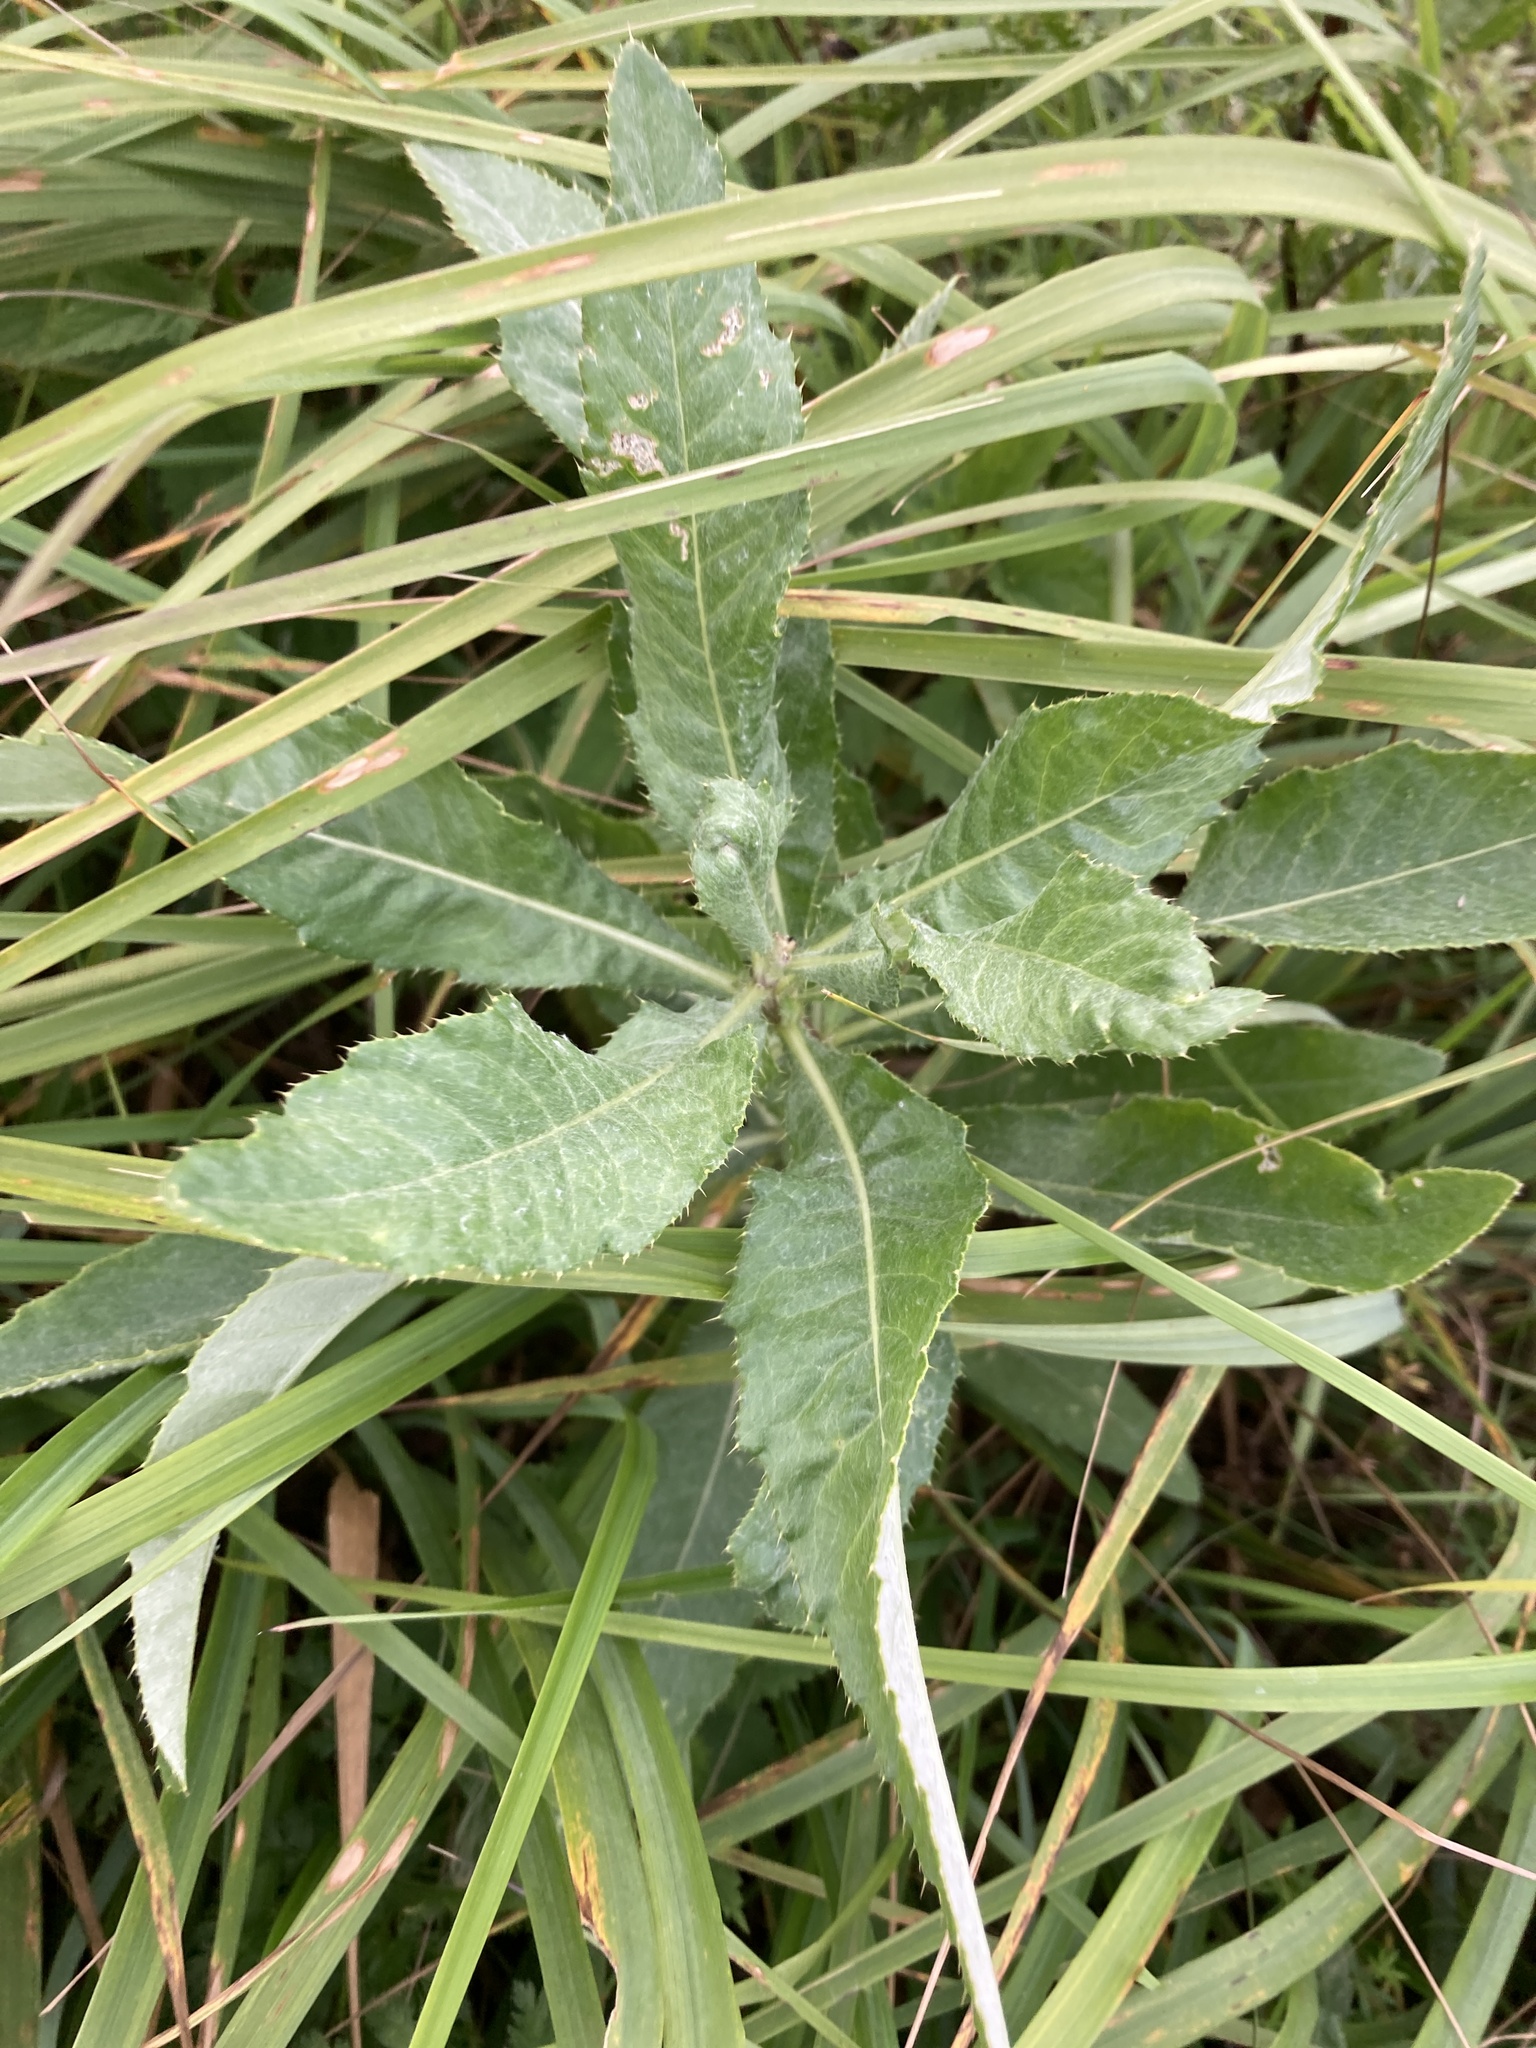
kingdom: Plantae
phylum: Tracheophyta
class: Magnoliopsida
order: Asterales
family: Asteraceae
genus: Cirsium
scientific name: Cirsium arvense
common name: Creeping thistle
